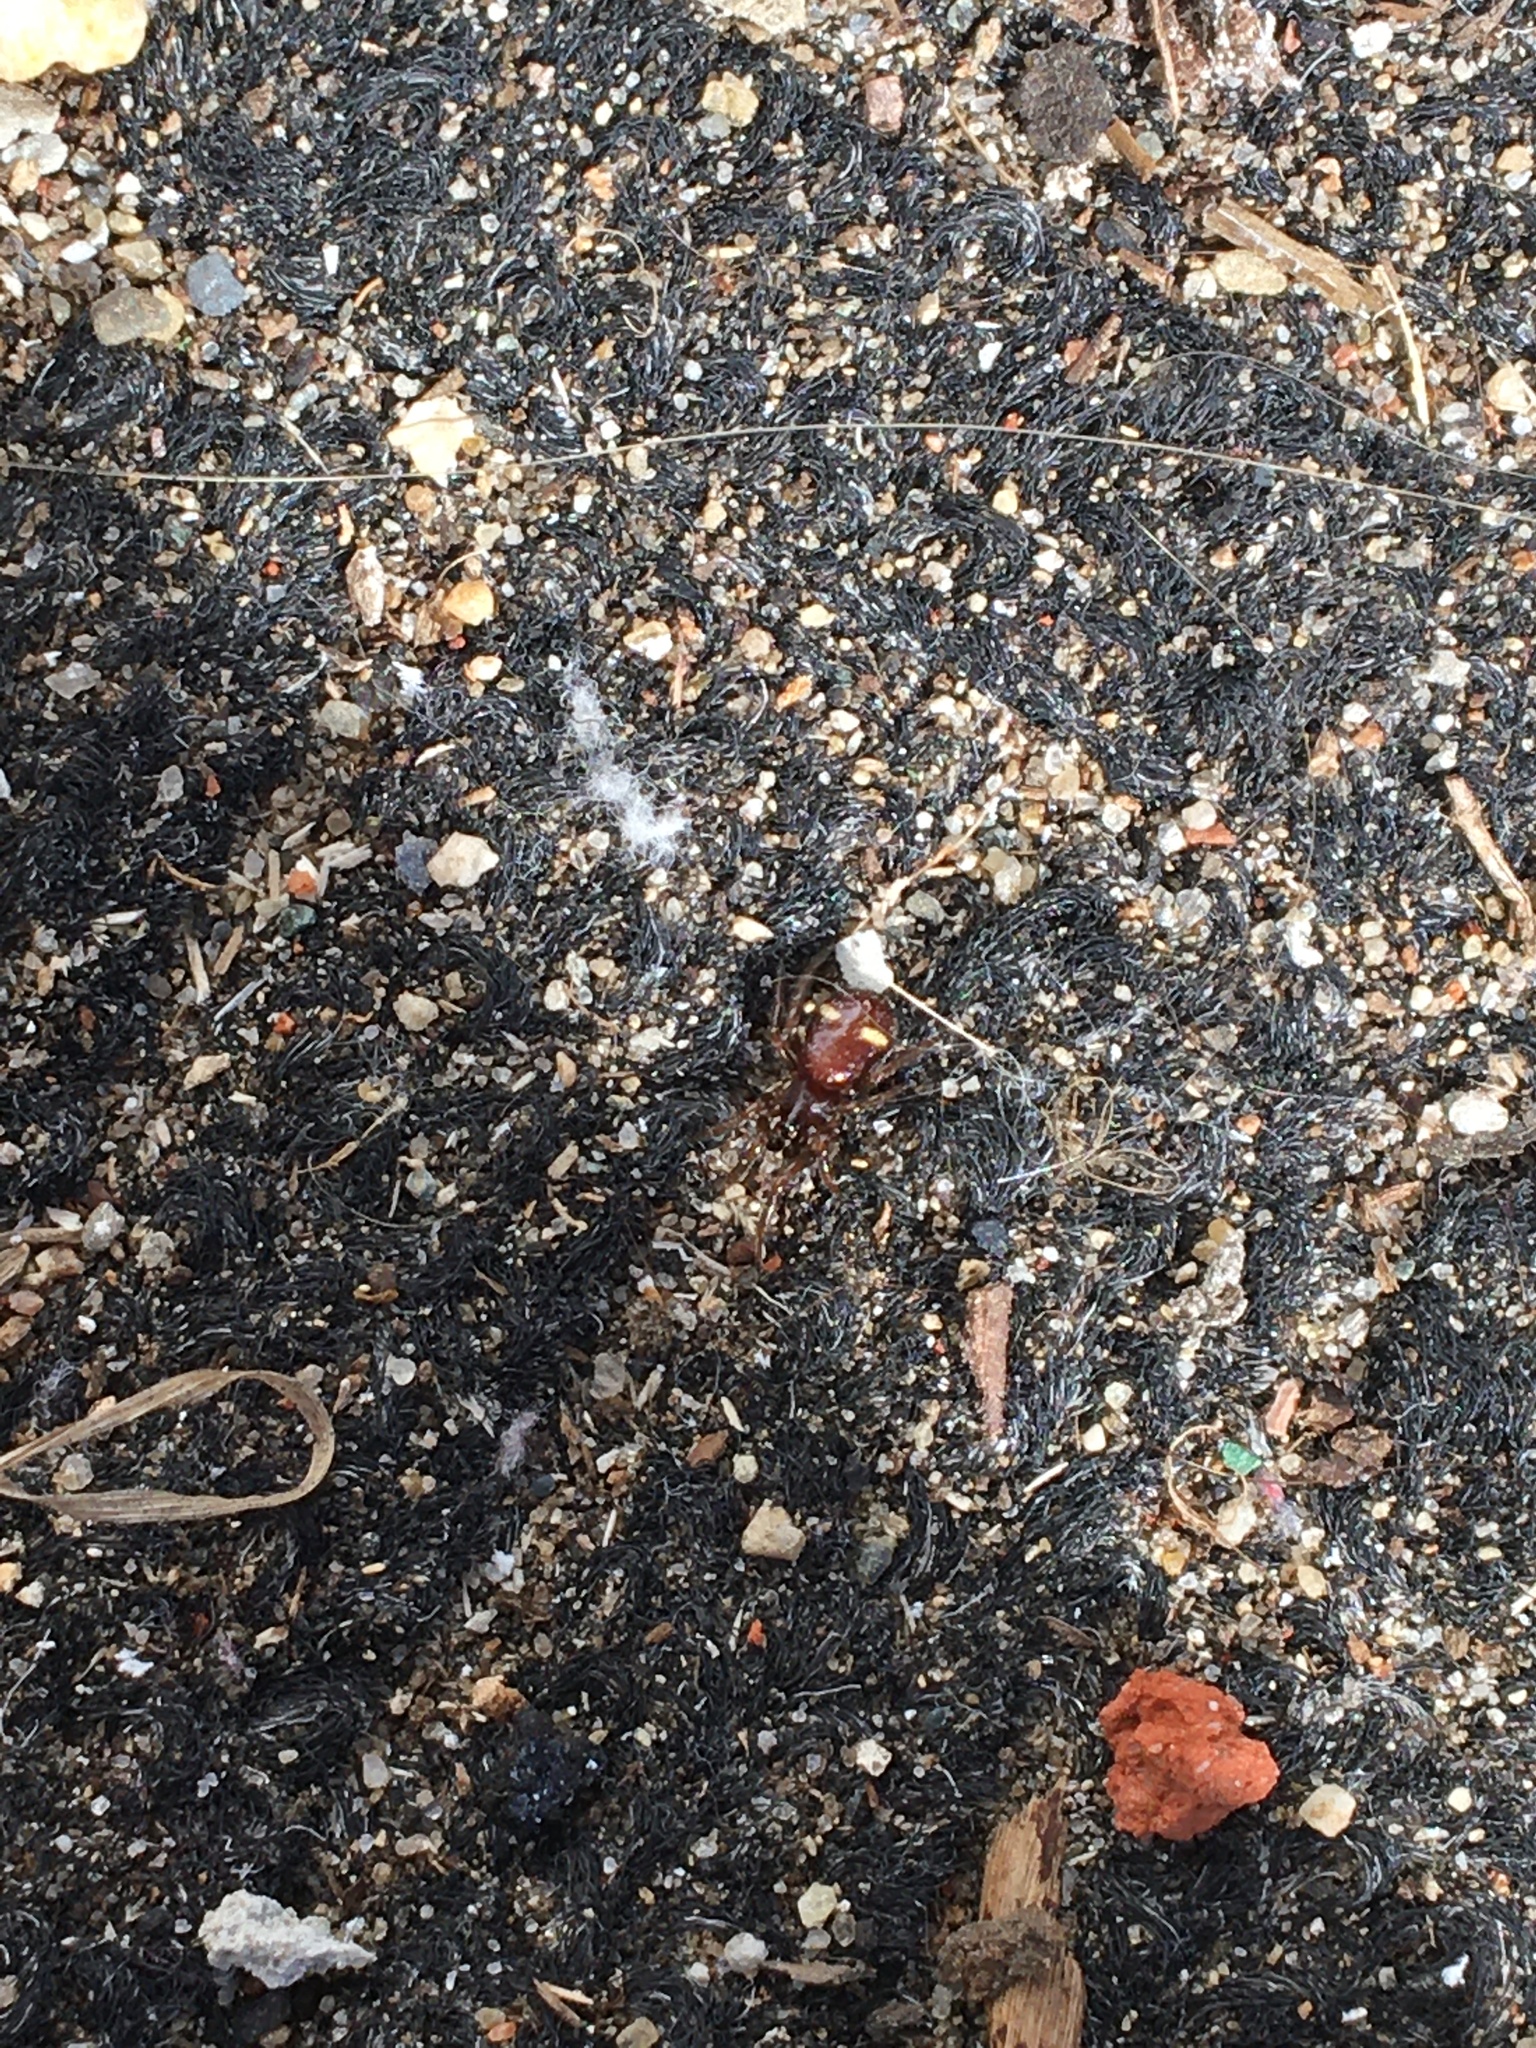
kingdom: Animalia
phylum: Arthropoda
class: Arachnida
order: Araneae
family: Theridiidae
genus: Asagena
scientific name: Asagena americana
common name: Two-spotted cobweb spider
